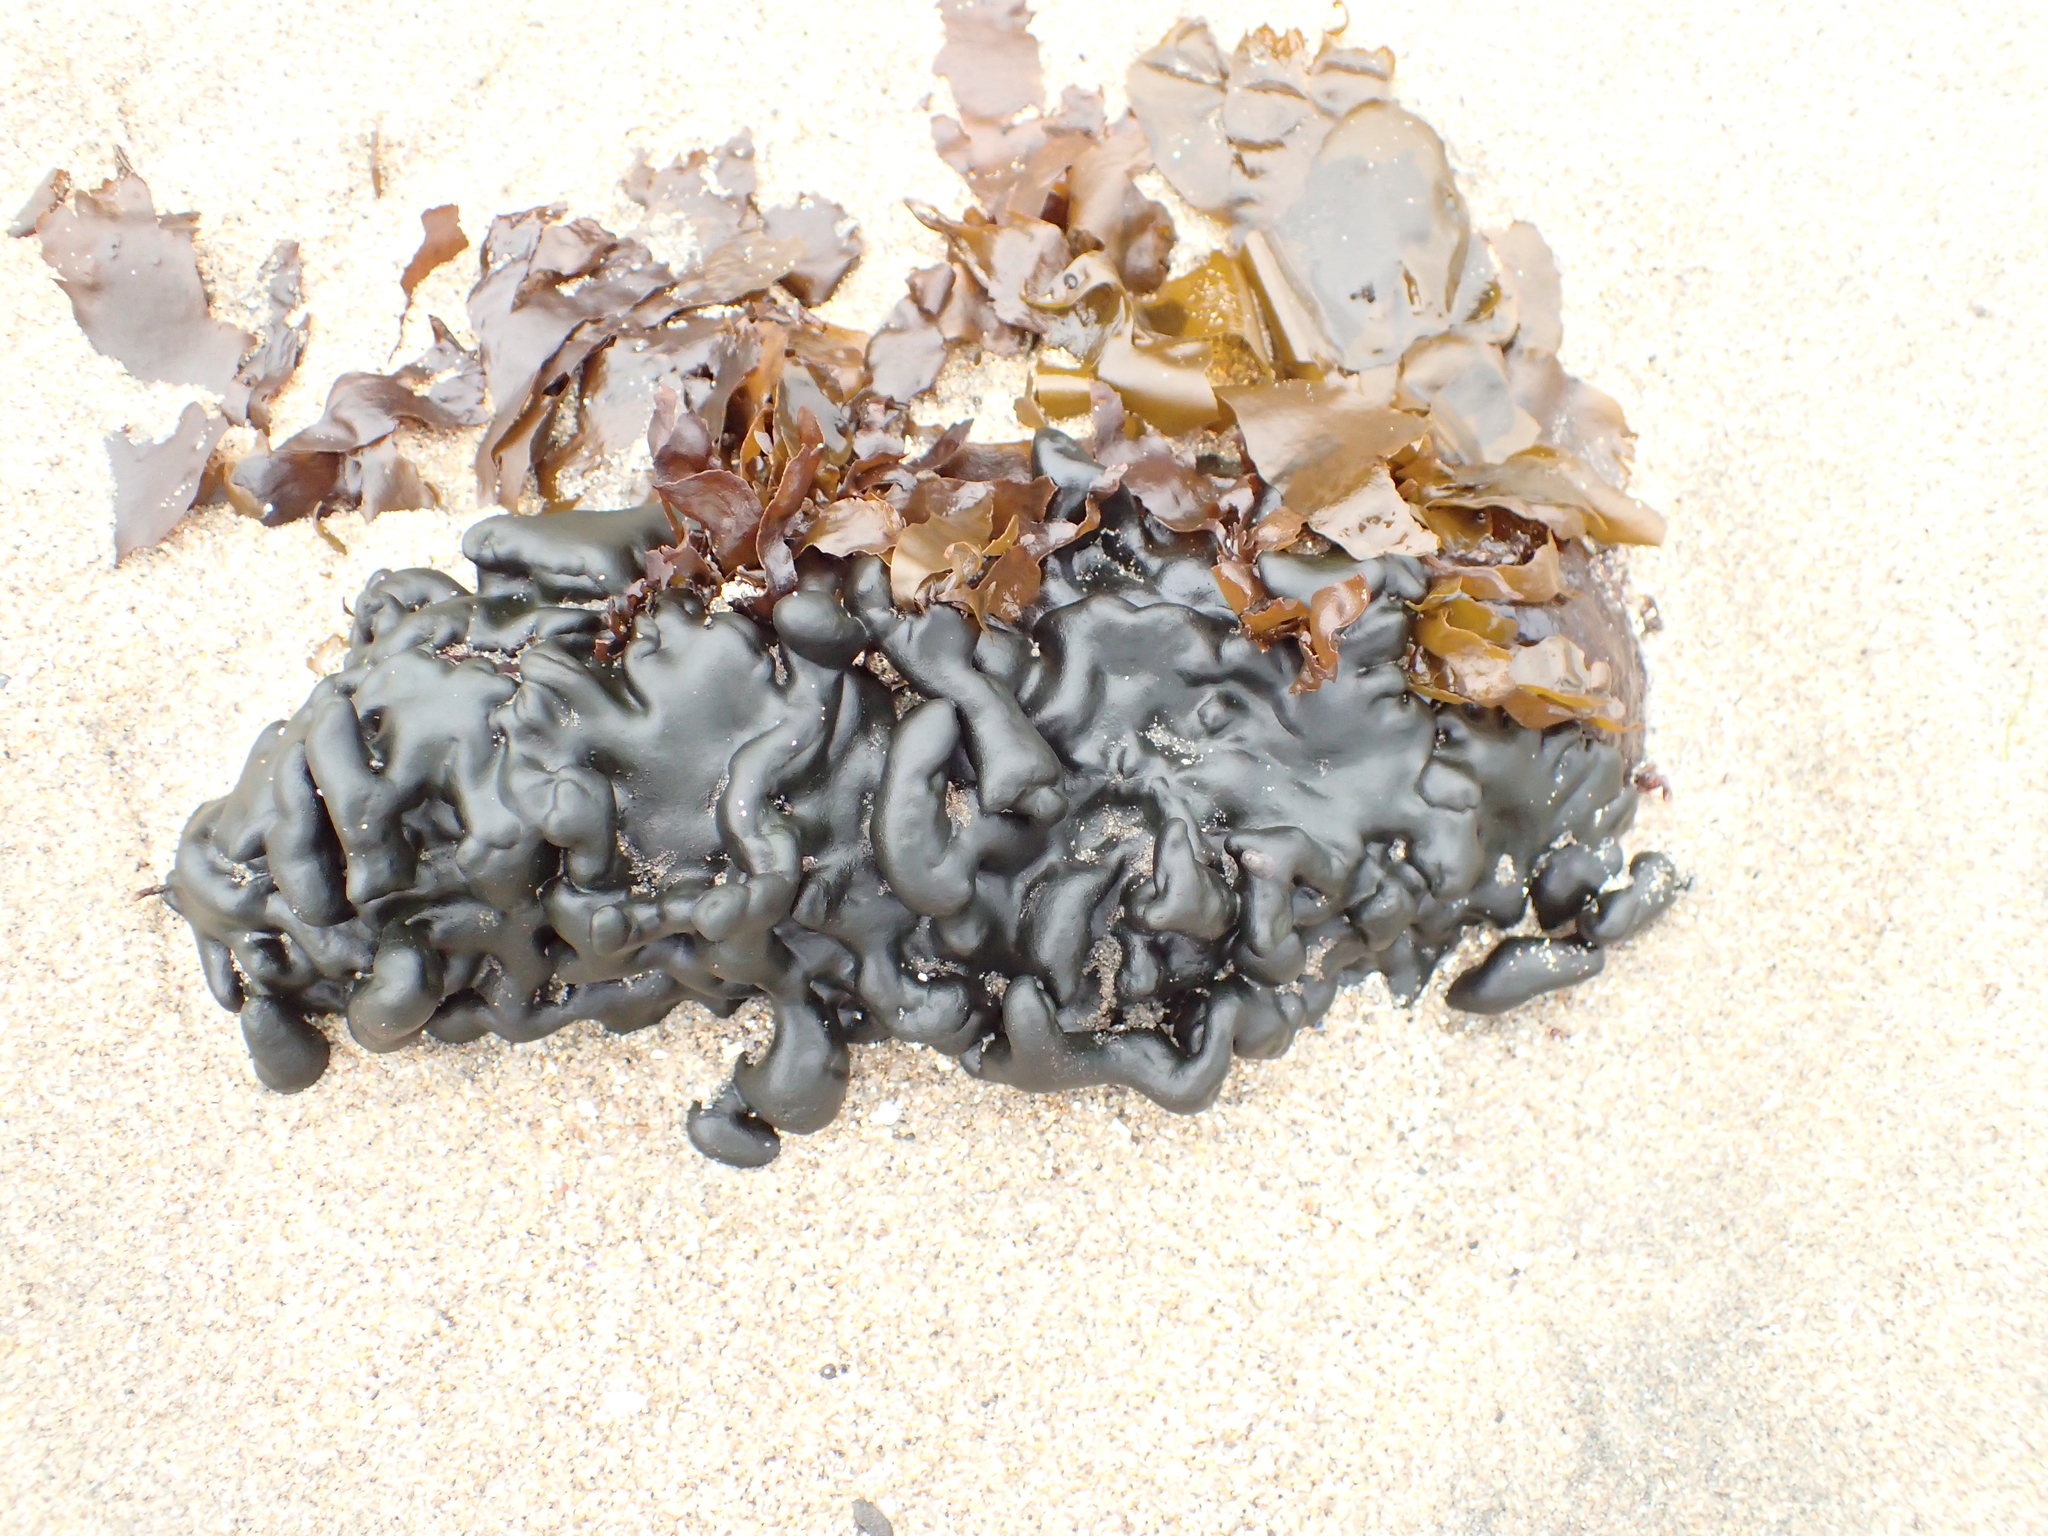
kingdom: Plantae
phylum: Chlorophyta
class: Ulvophyceae
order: Bryopsidales
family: Codiaceae
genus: Codium
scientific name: Codium setchellii
